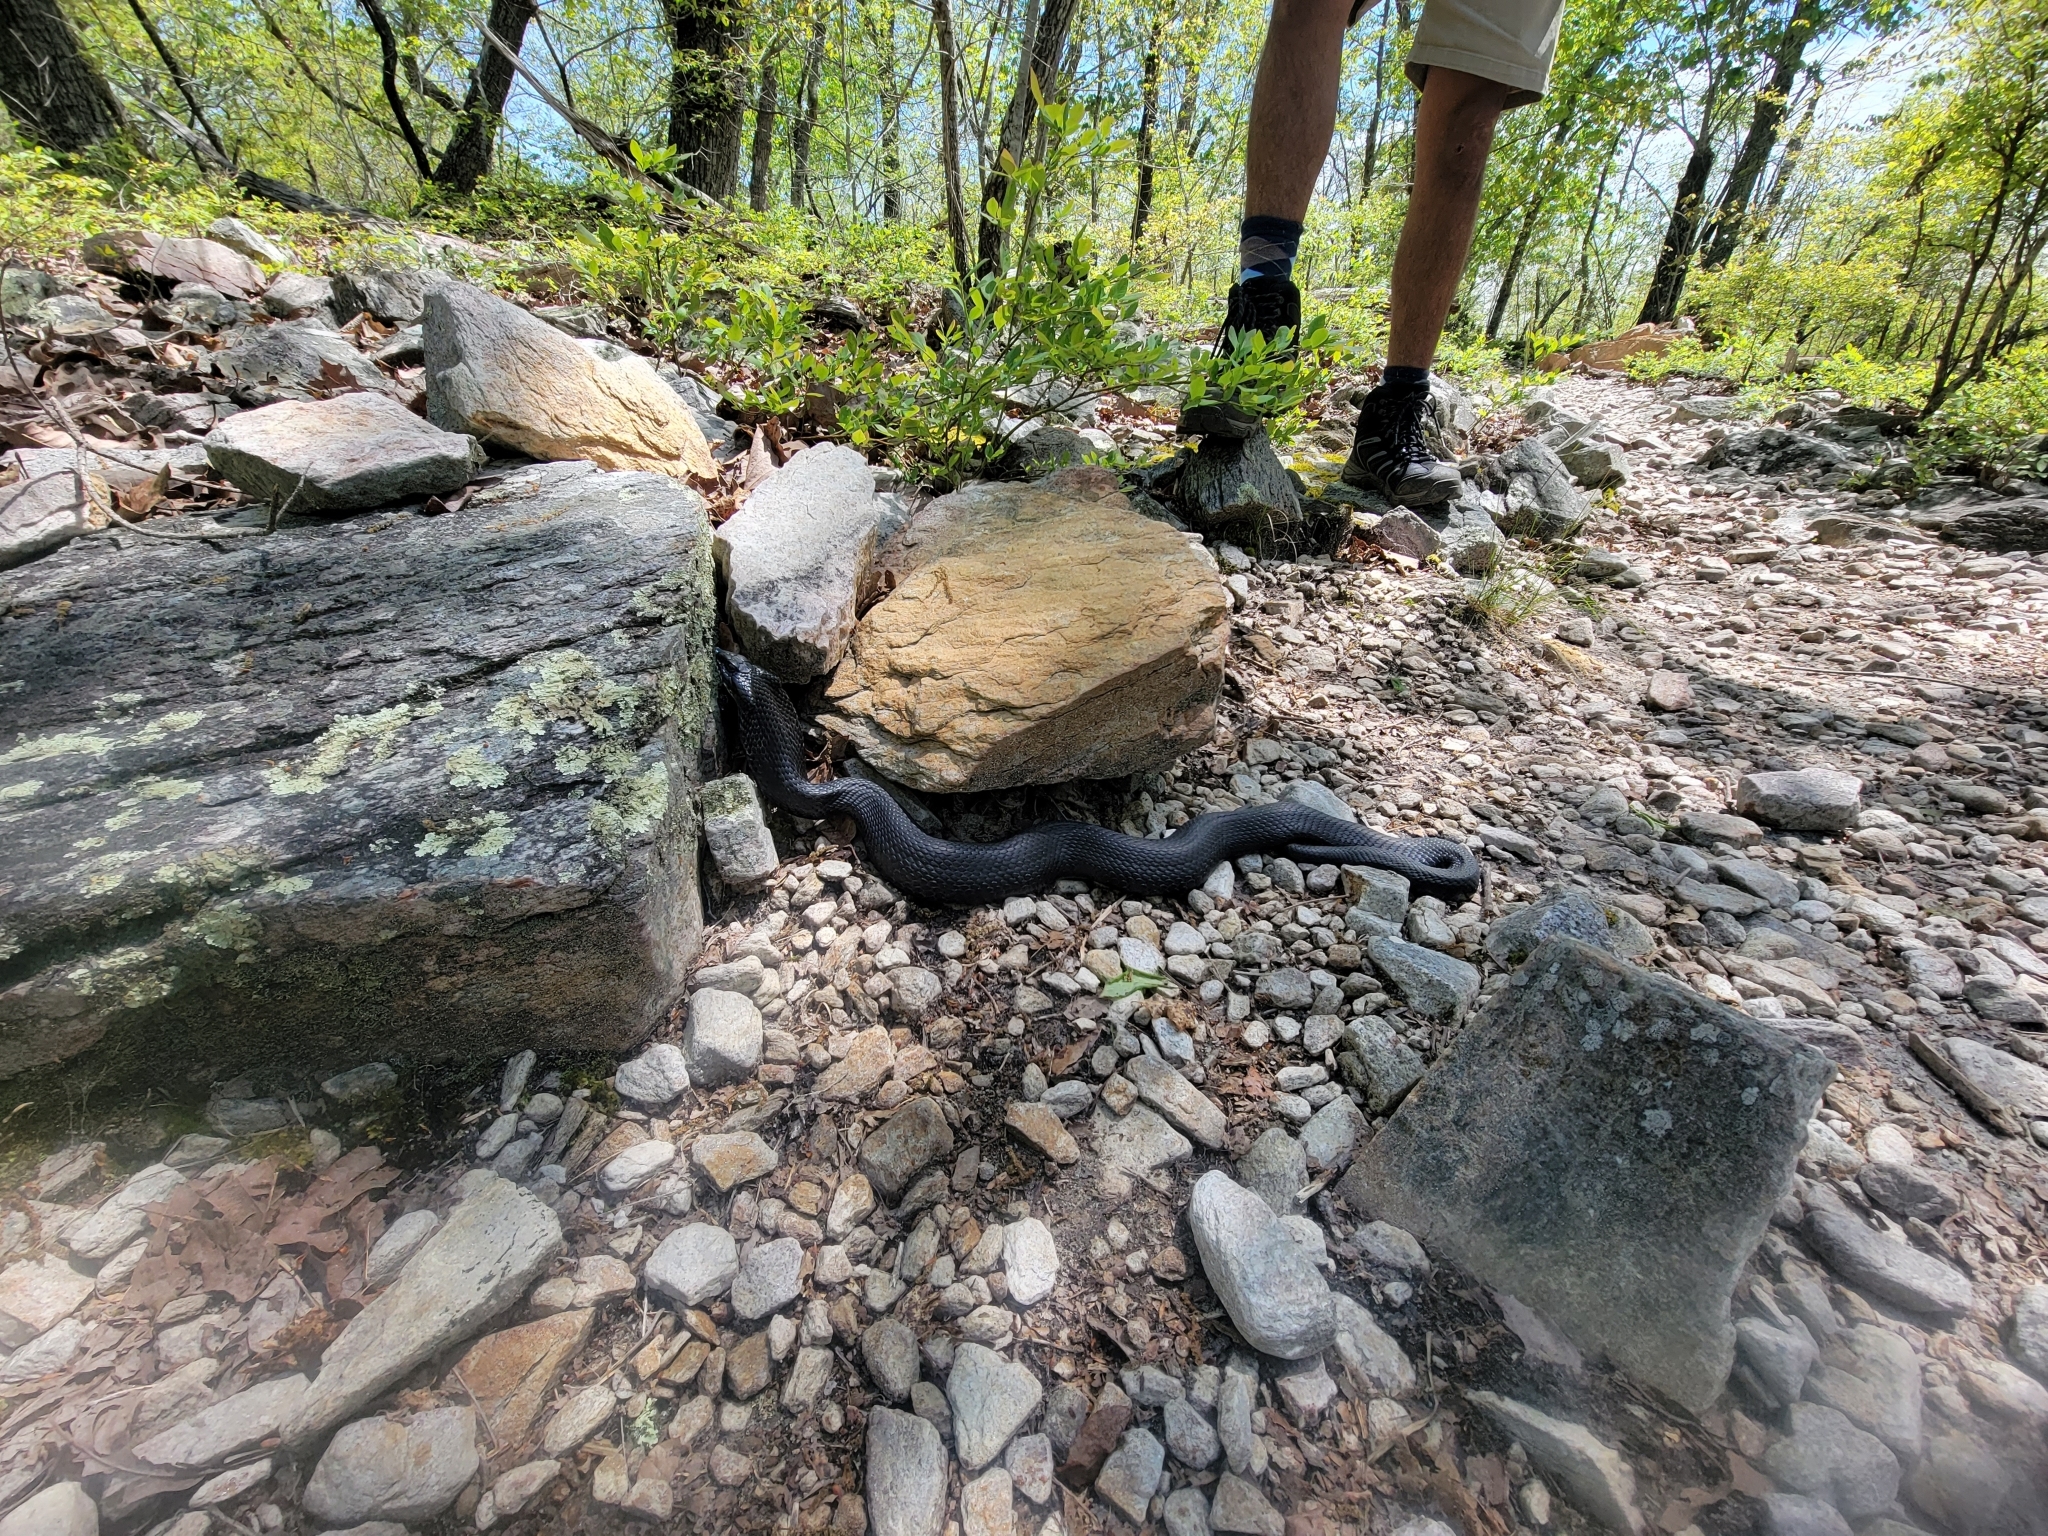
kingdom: Animalia
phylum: Chordata
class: Squamata
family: Colubridae
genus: Heterodon
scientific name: Heterodon platirhinos
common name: Eastern hognose snake
